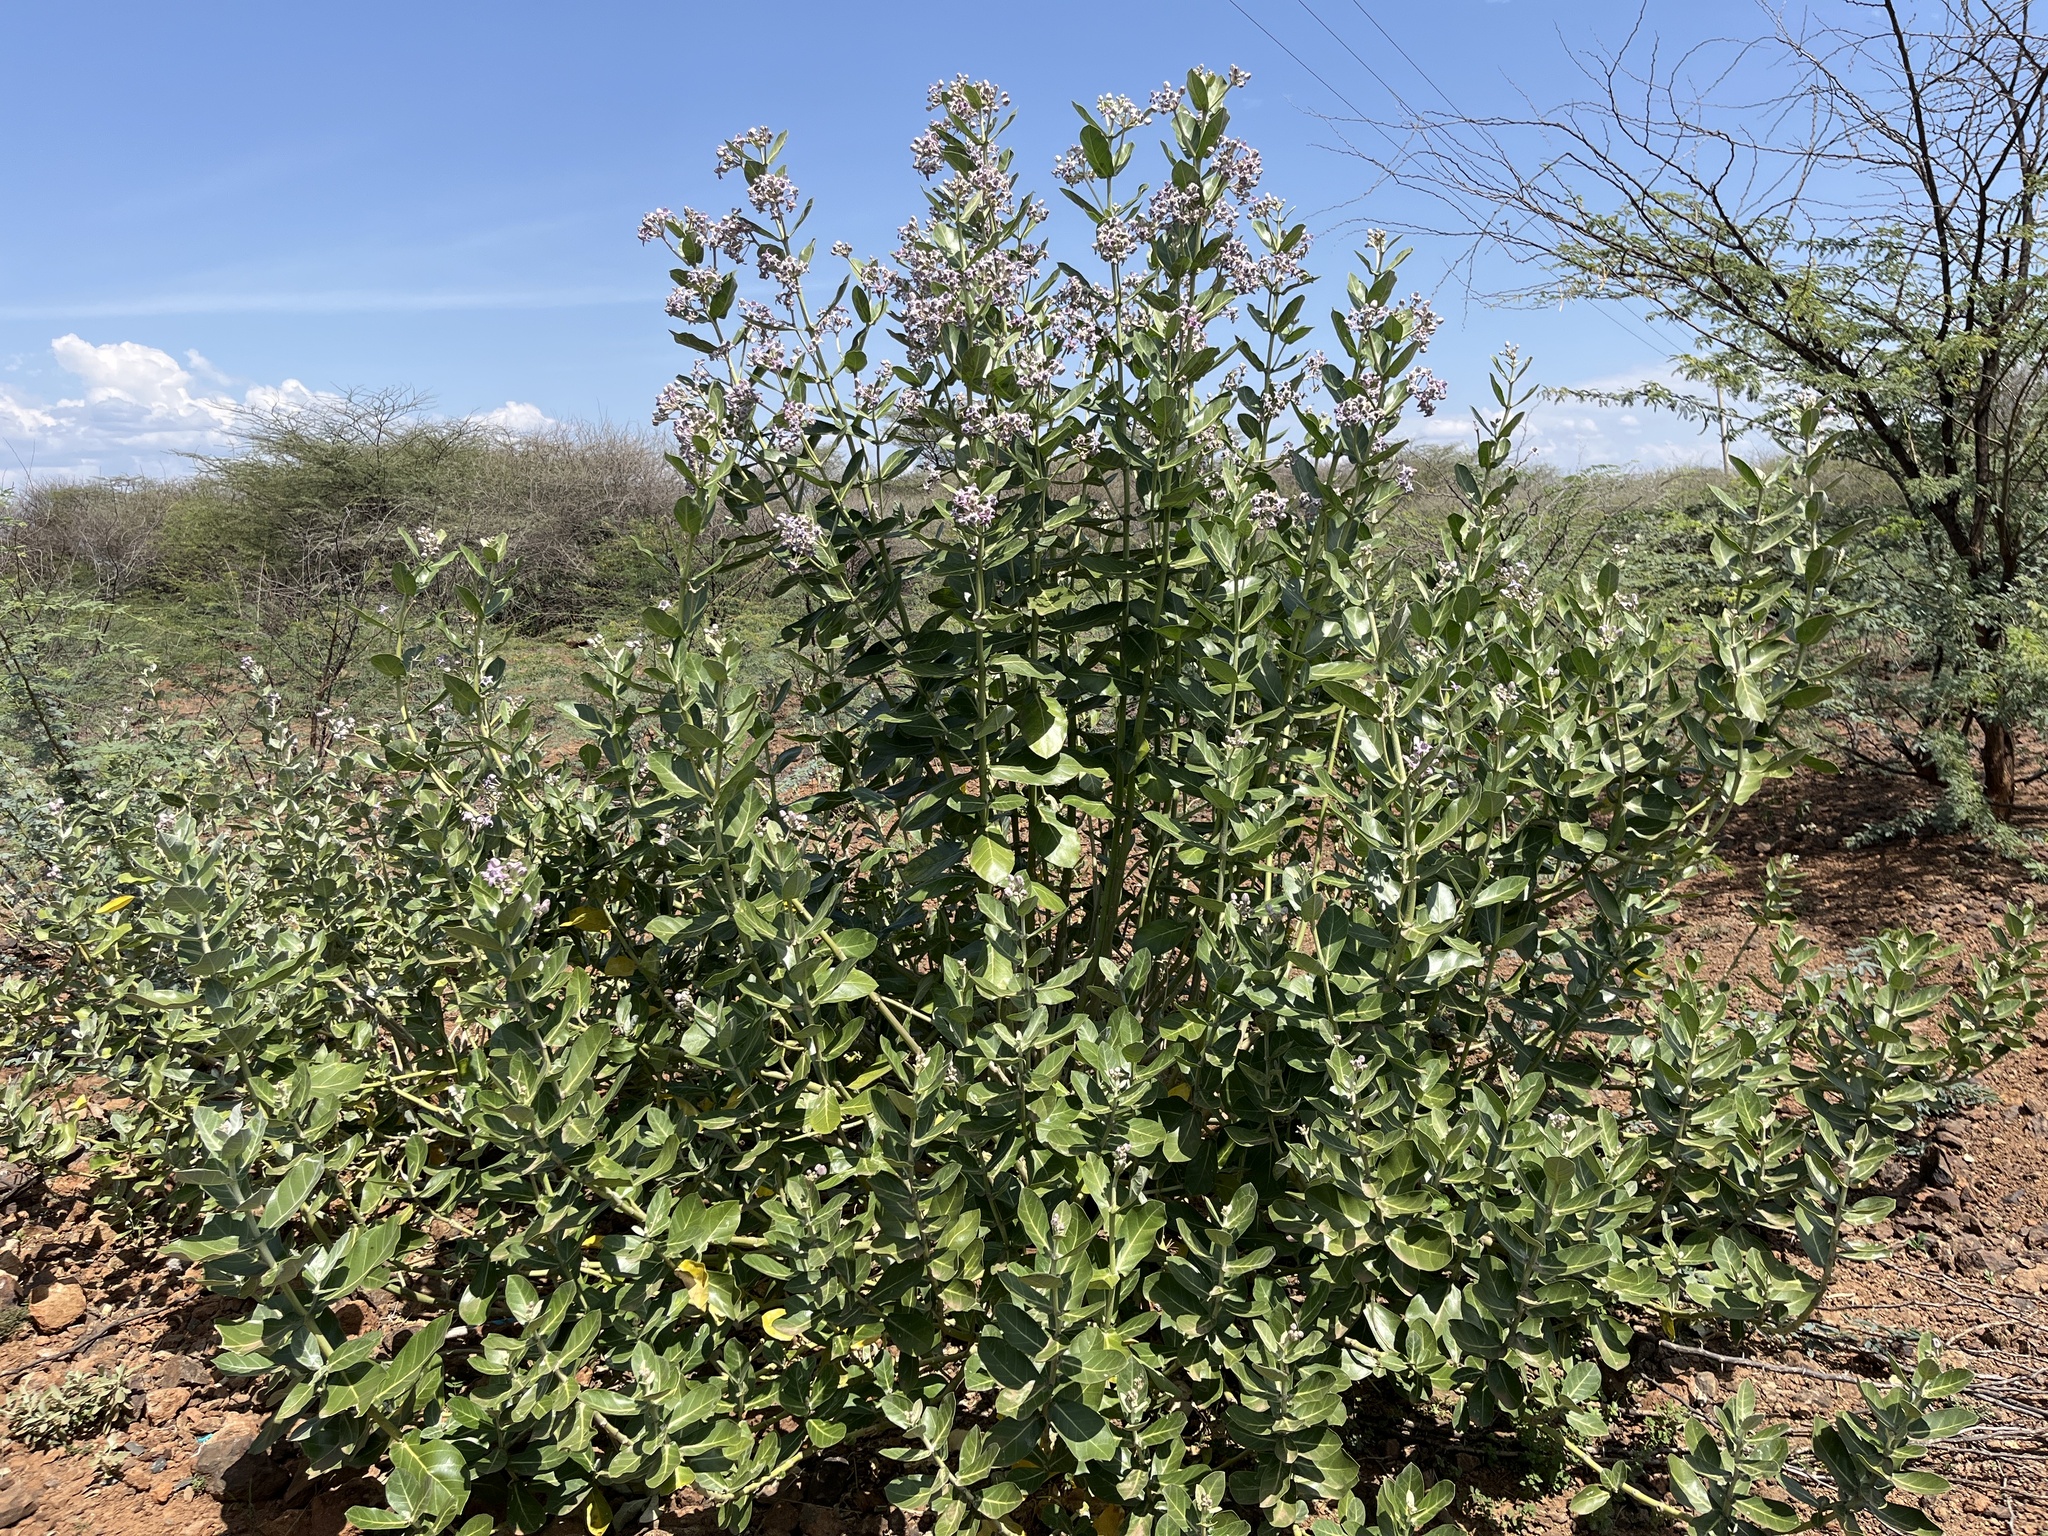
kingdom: Plantae
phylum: Tracheophyta
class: Magnoliopsida
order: Gentianales
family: Apocynaceae
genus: Calotropis
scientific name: Calotropis gigantea
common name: Crown flower
